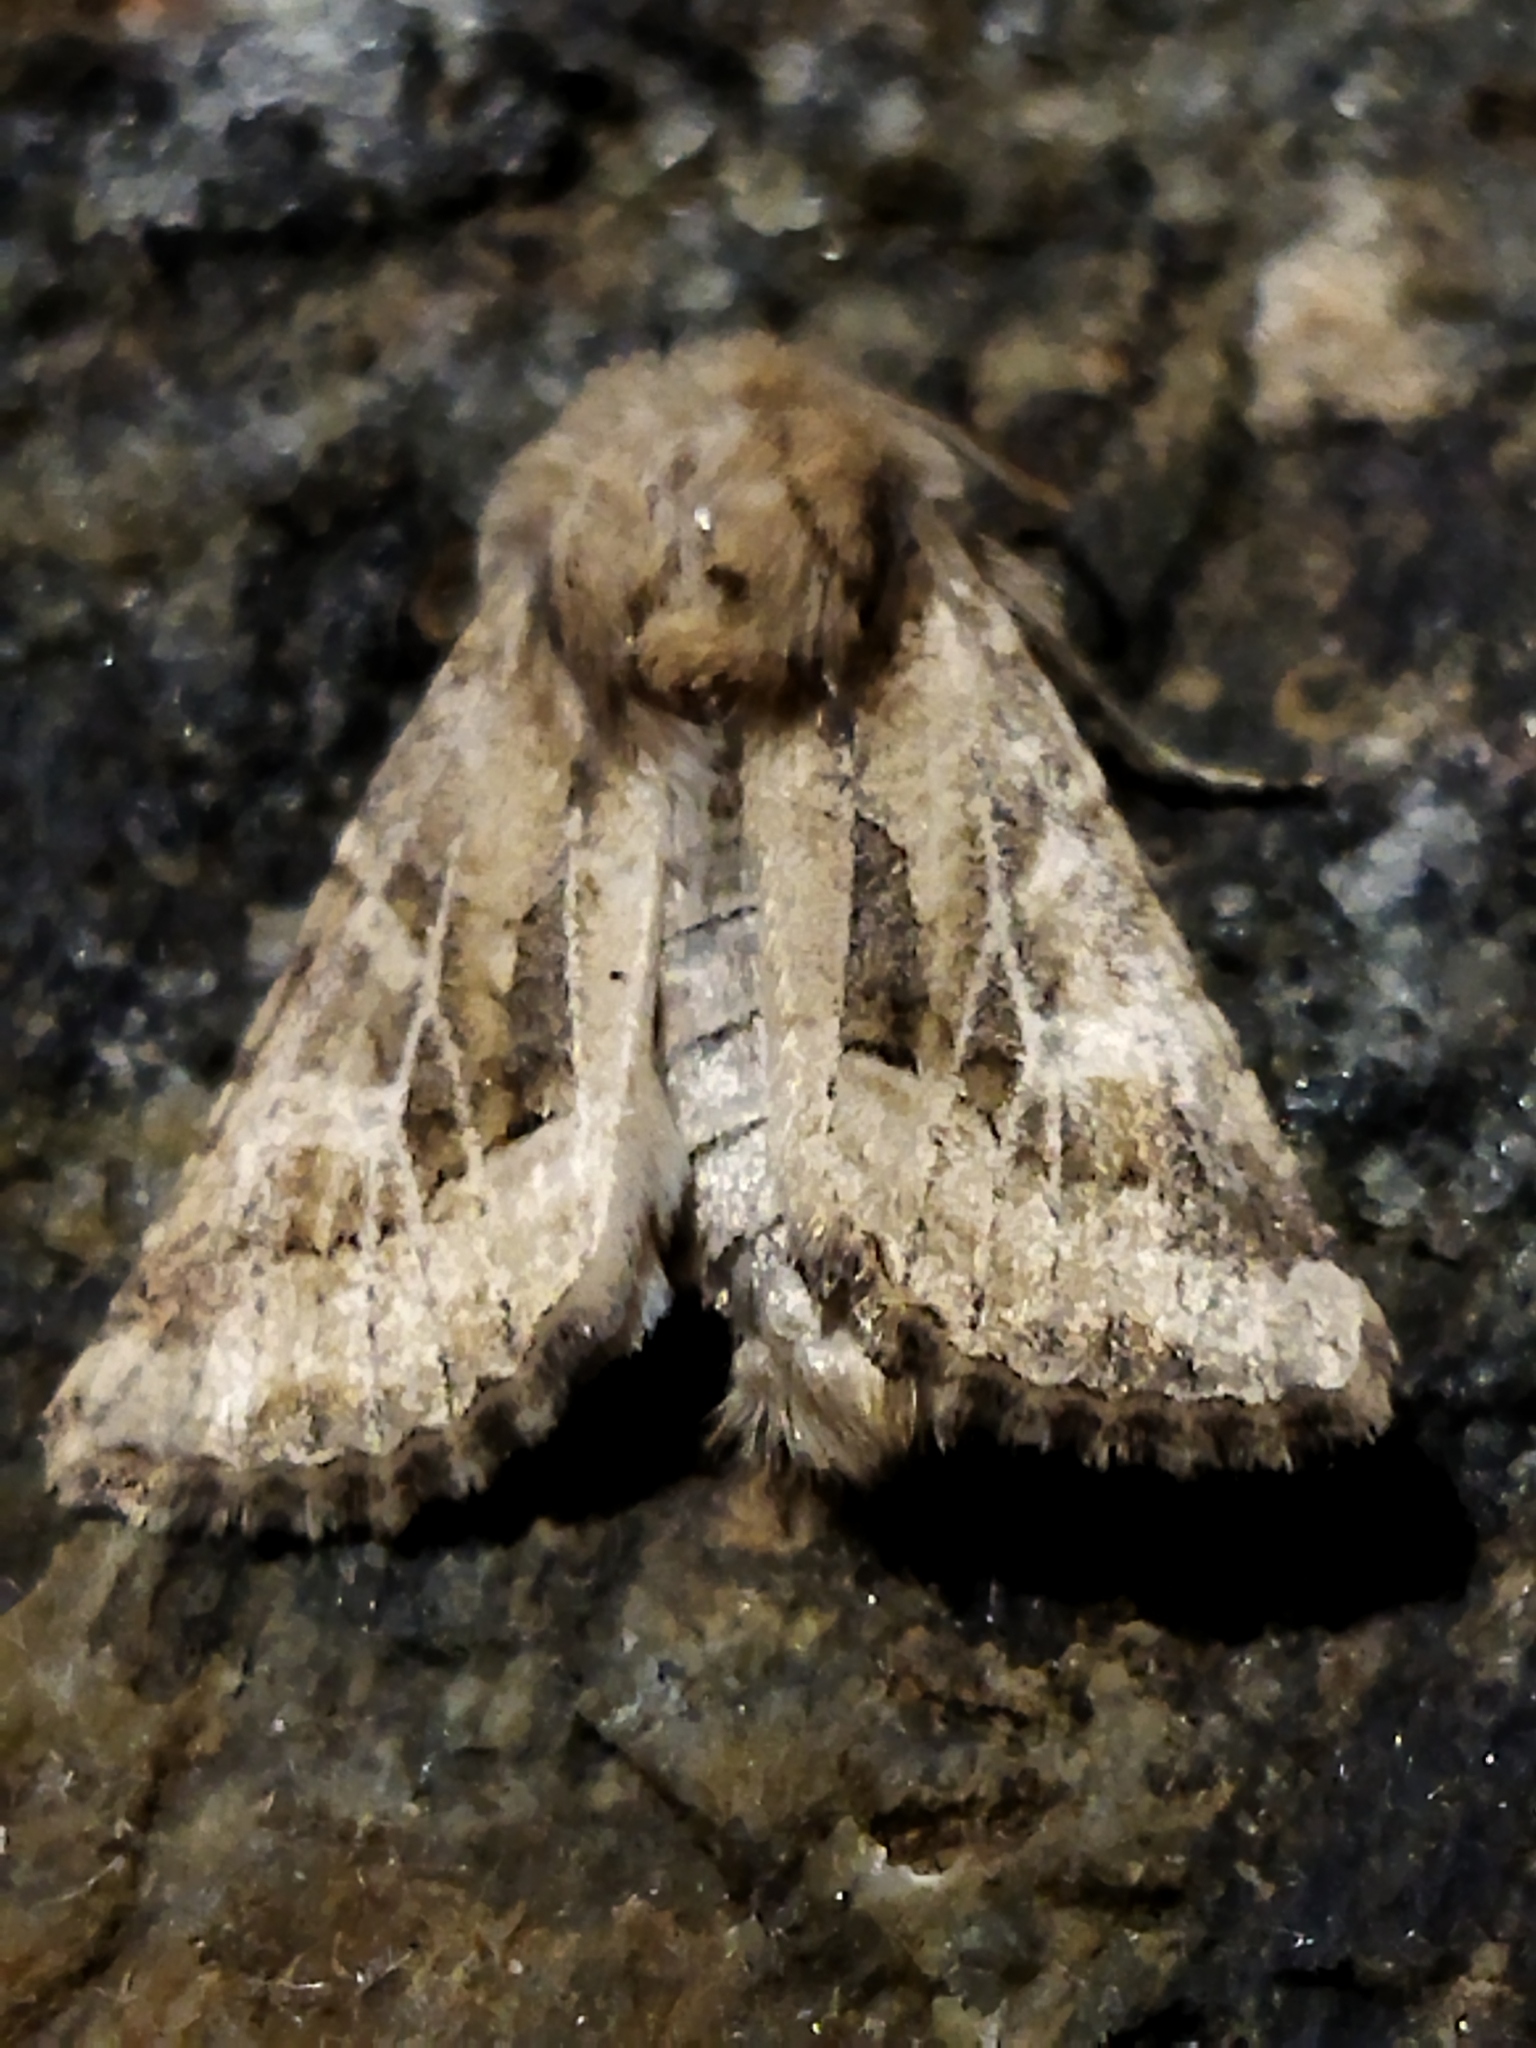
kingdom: Animalia
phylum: Arthropoda
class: Insecta
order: Lepidoptera
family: Noctuidae
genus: Luperina
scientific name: Luperina dumerilii
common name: Dumeril's rustic
